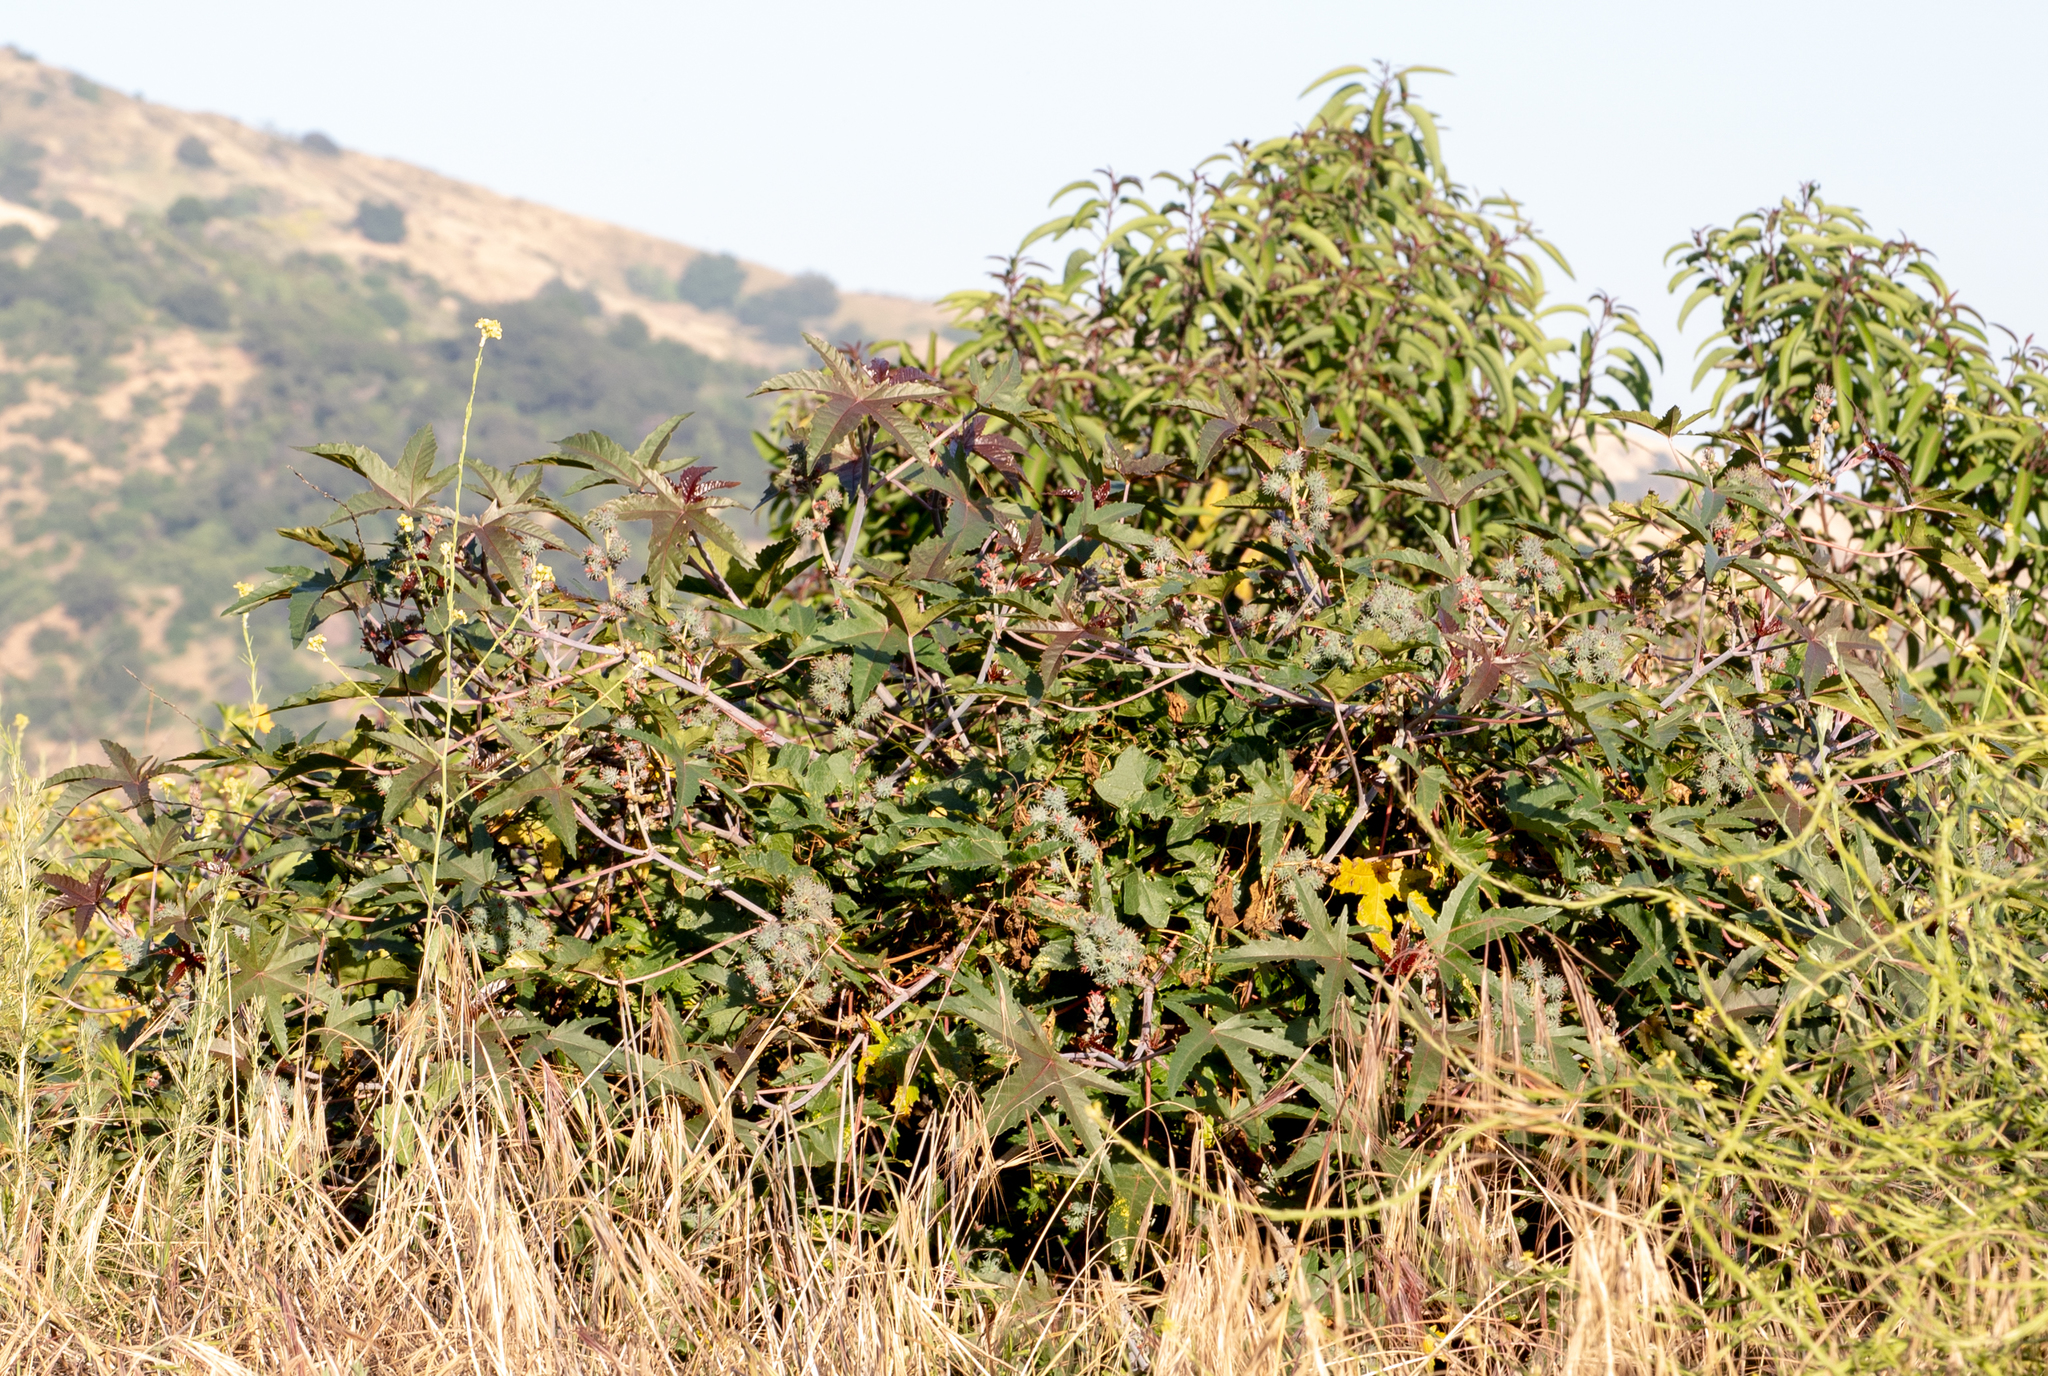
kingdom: Plantae
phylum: Tracheophyta
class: Magnoliopsida
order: Malpighiales
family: Euphorbiaceae
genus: Ricinus
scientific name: Ricinus communis
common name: Castor-oil-plant
